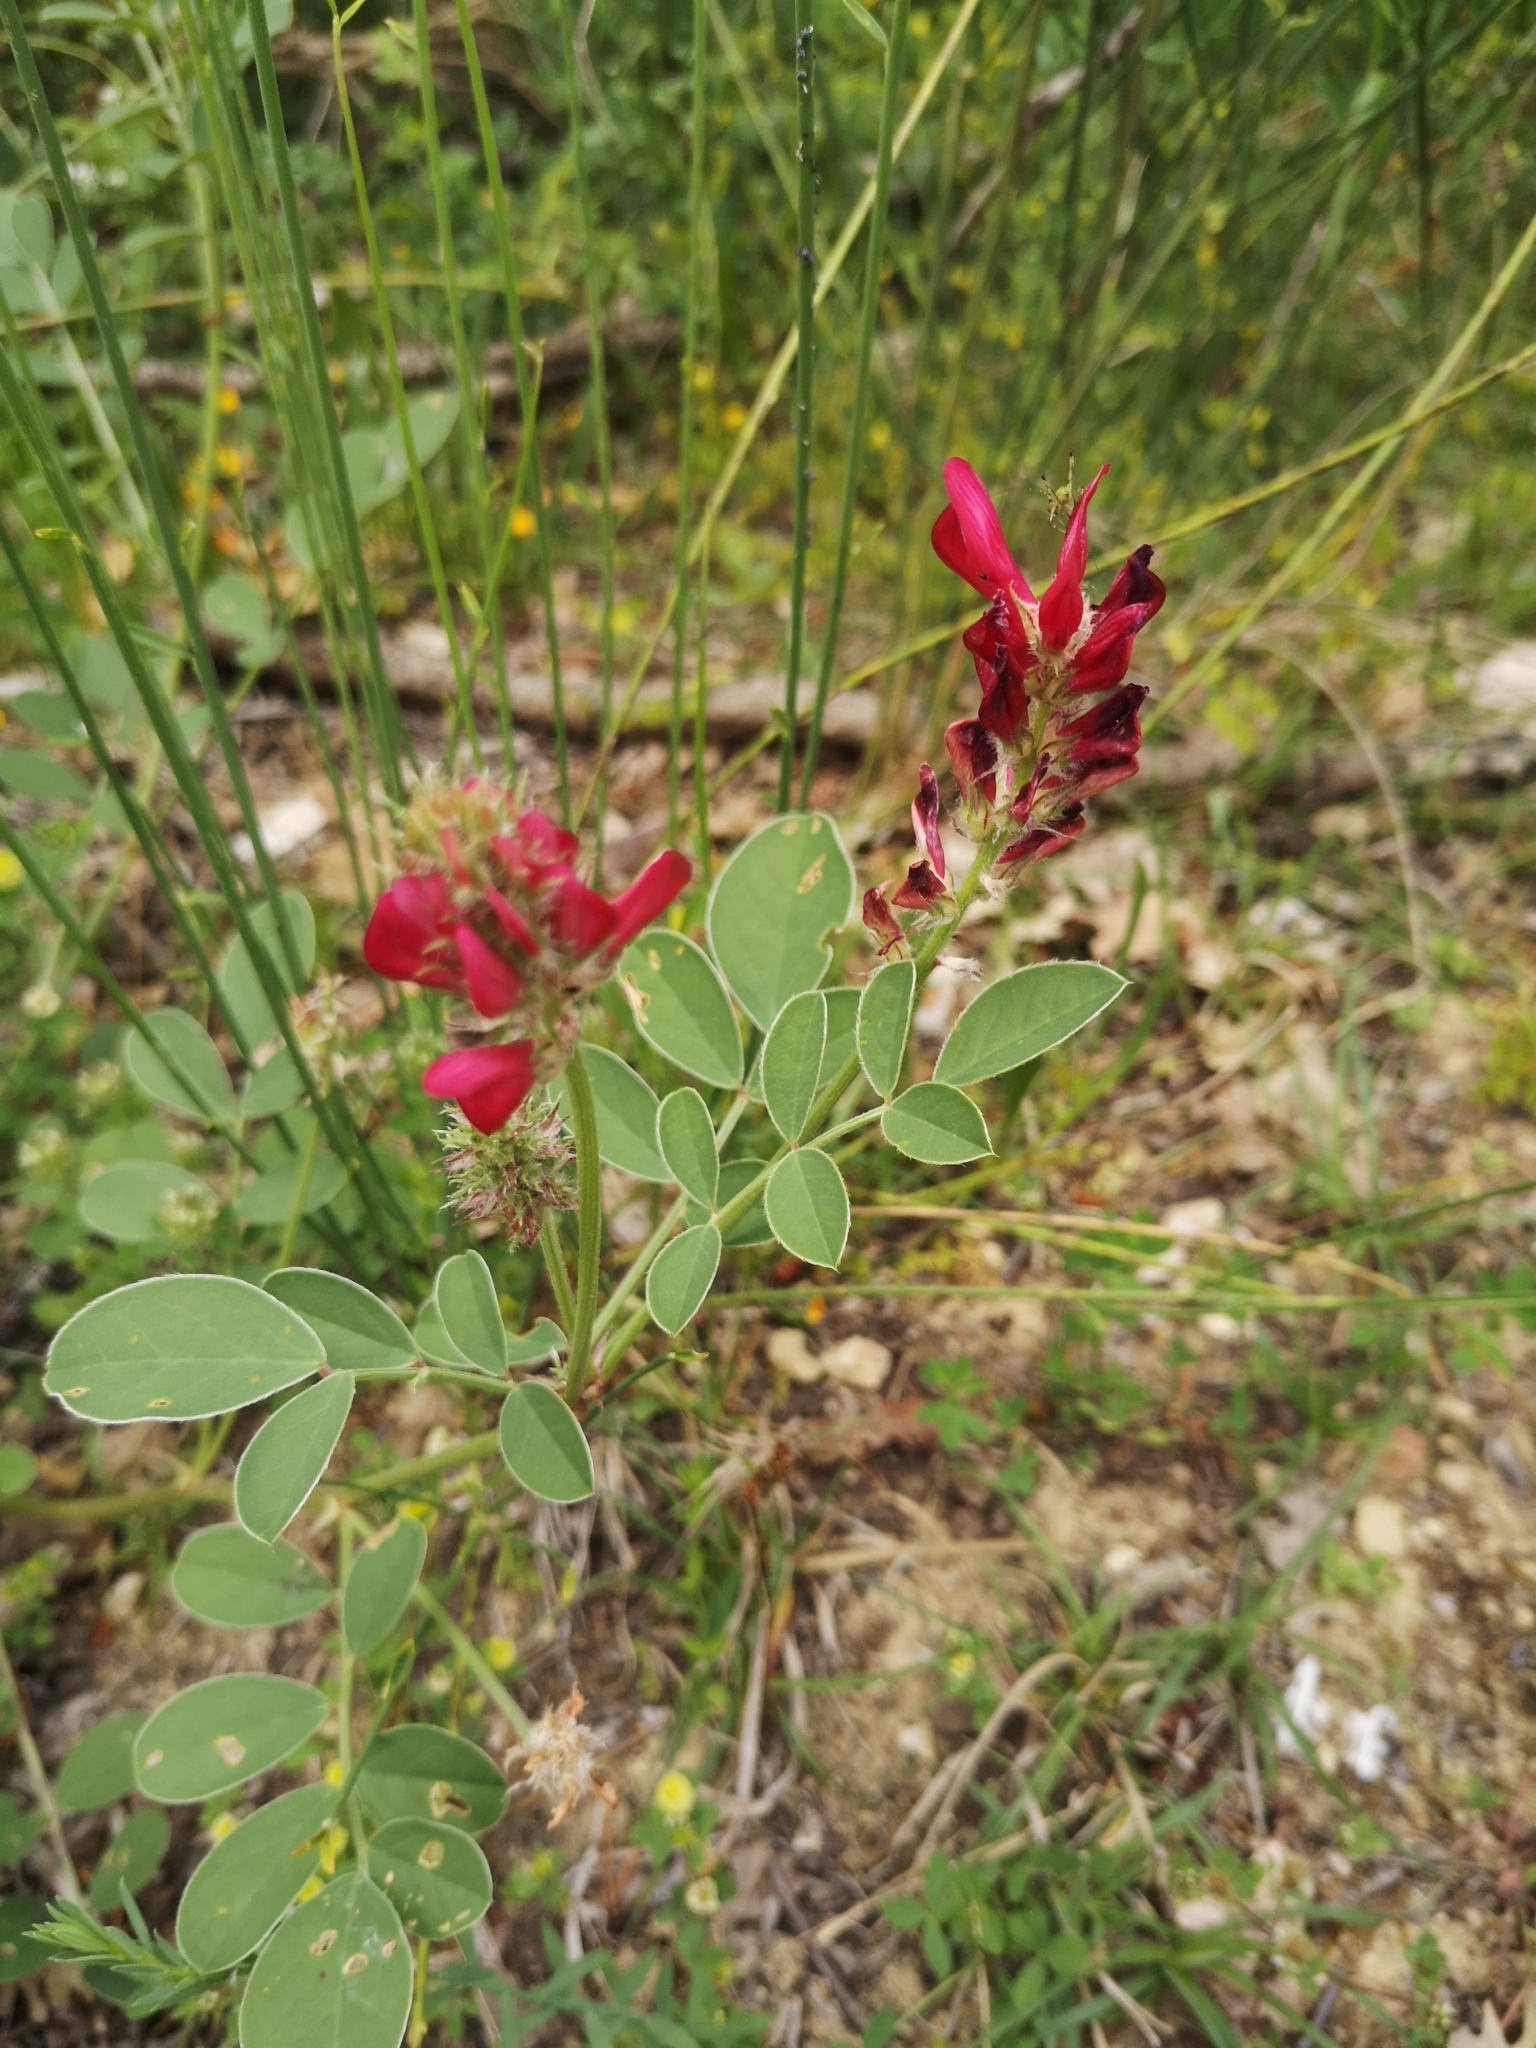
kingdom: Plantae
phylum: Tracheophyta
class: Magnoliopsida
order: Fabales
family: Fabaceae
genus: Sulla
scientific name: Sulla coronaria
